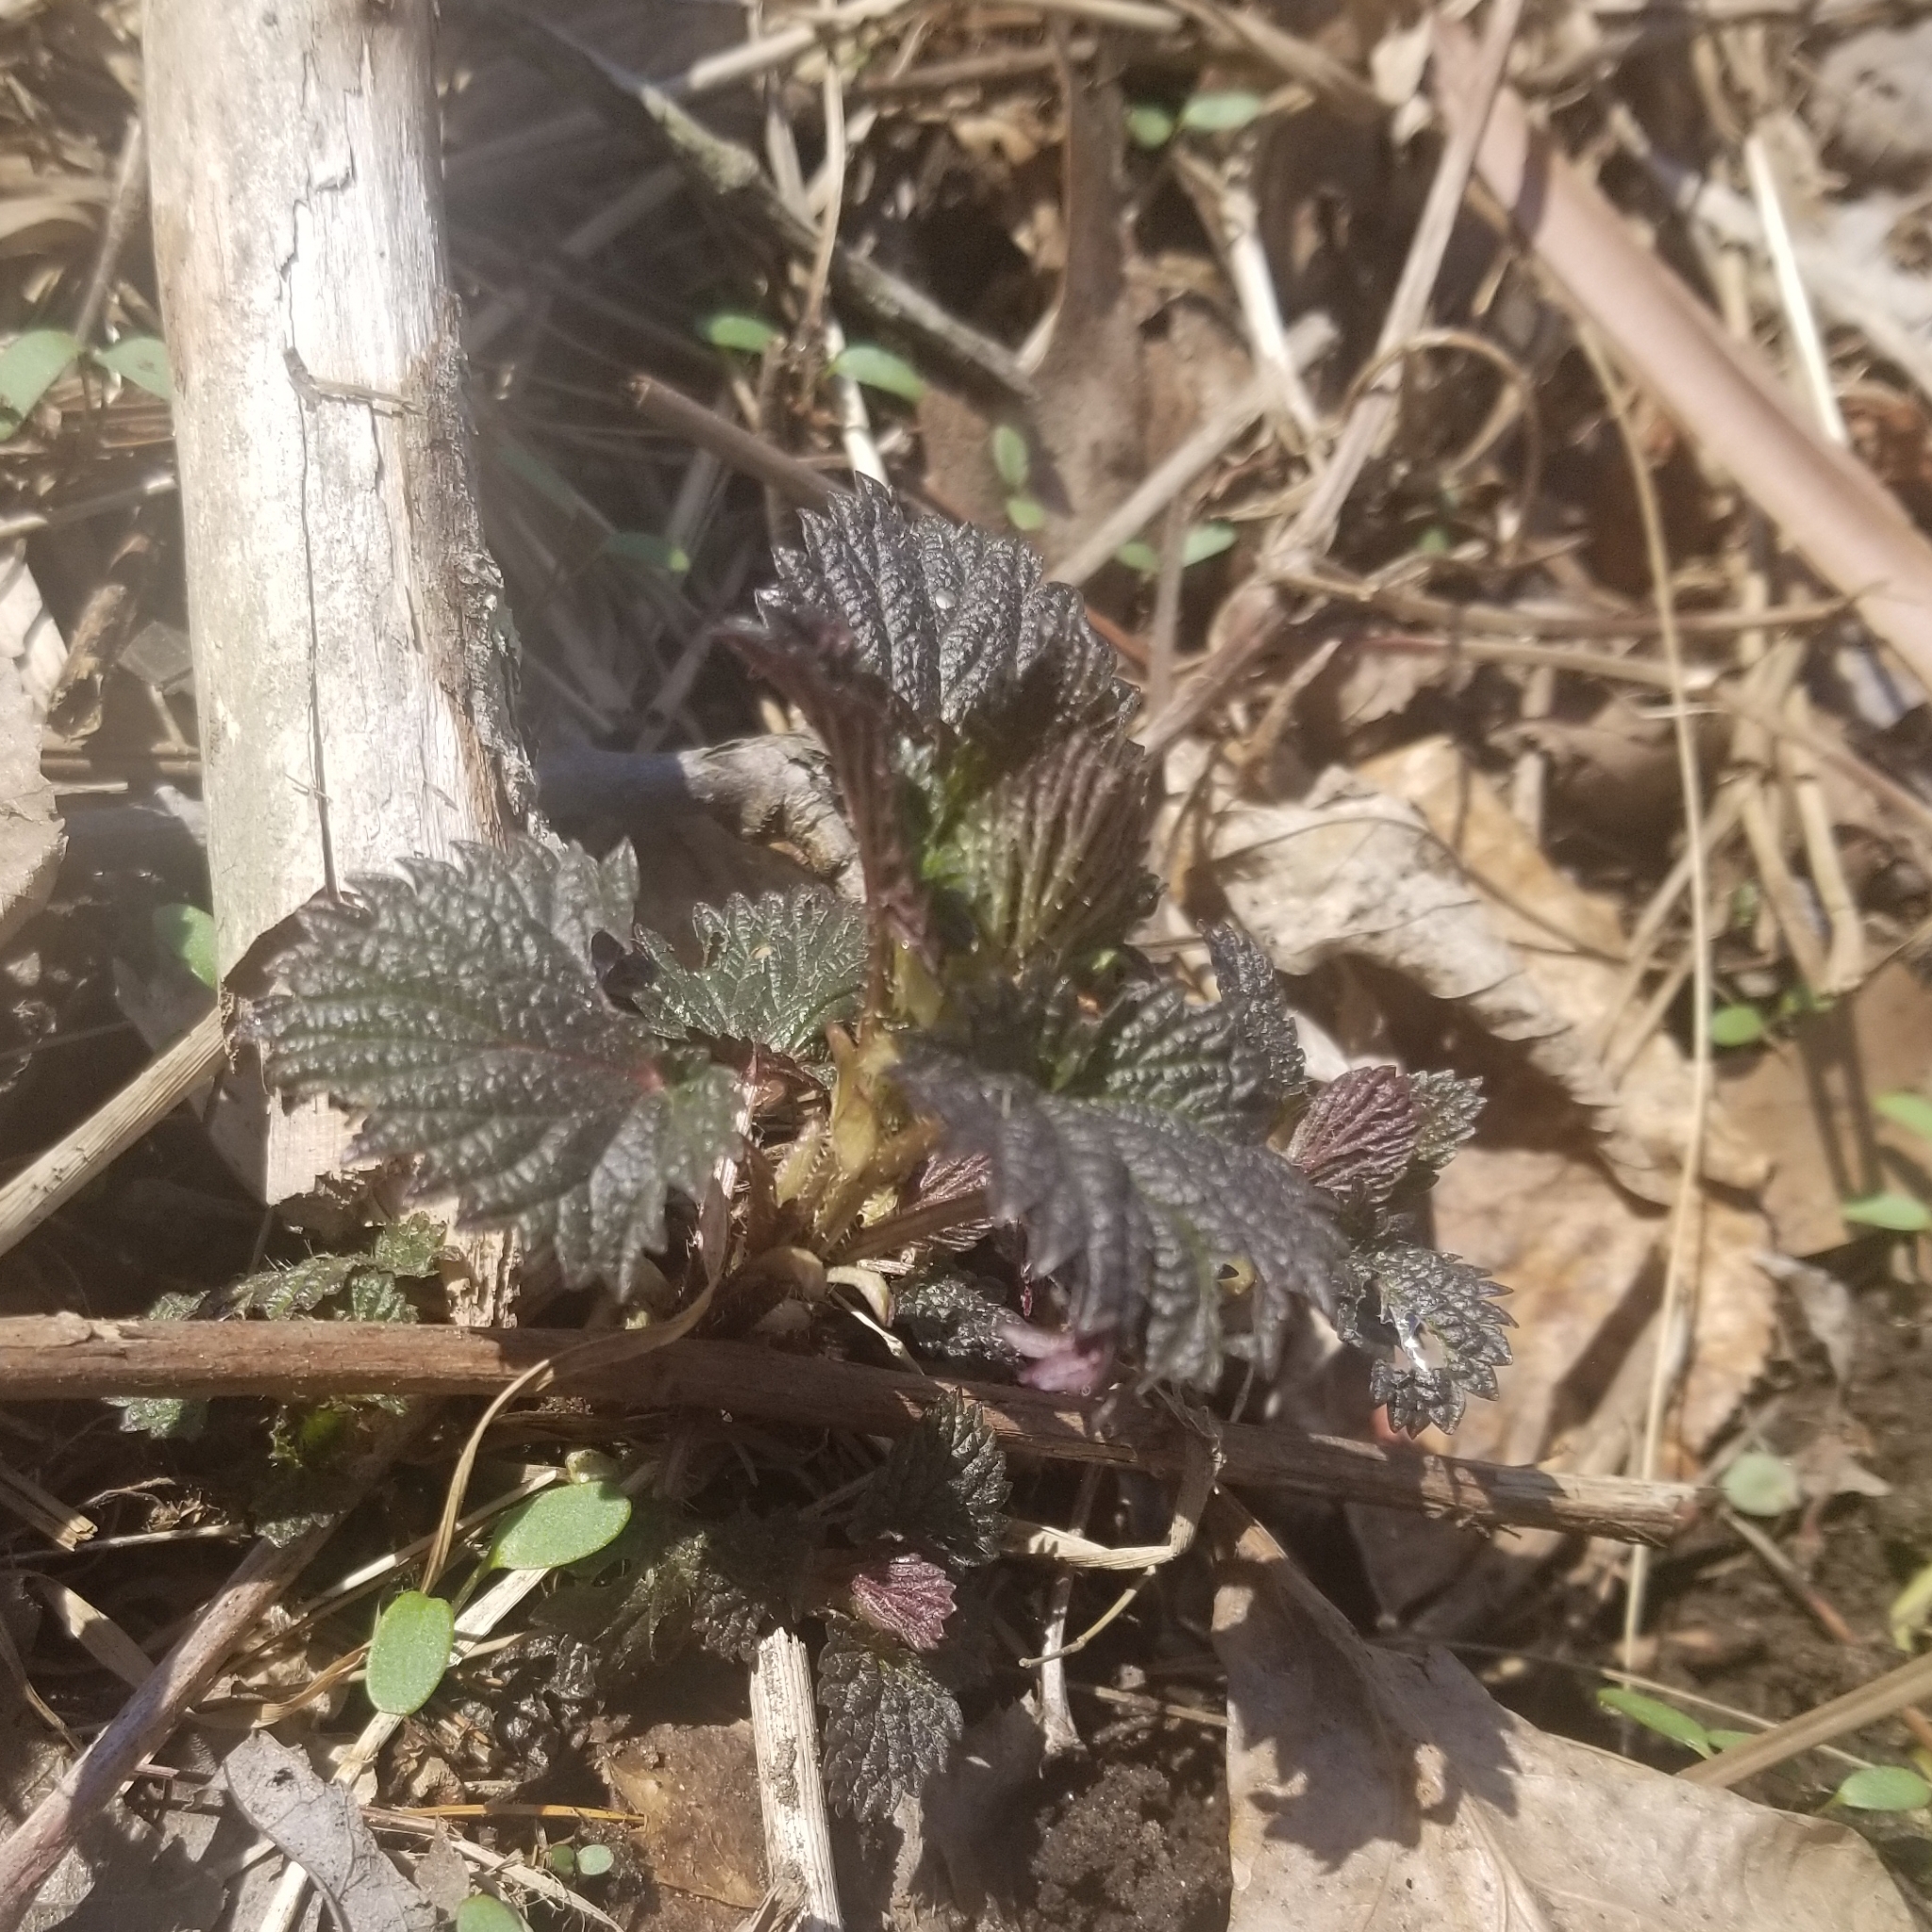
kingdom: Plantae
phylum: Tracheophyta
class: Magnoliopsida
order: Rosales
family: Urticaceae
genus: Urtica
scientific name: Urtica dioica
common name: Common nettle
